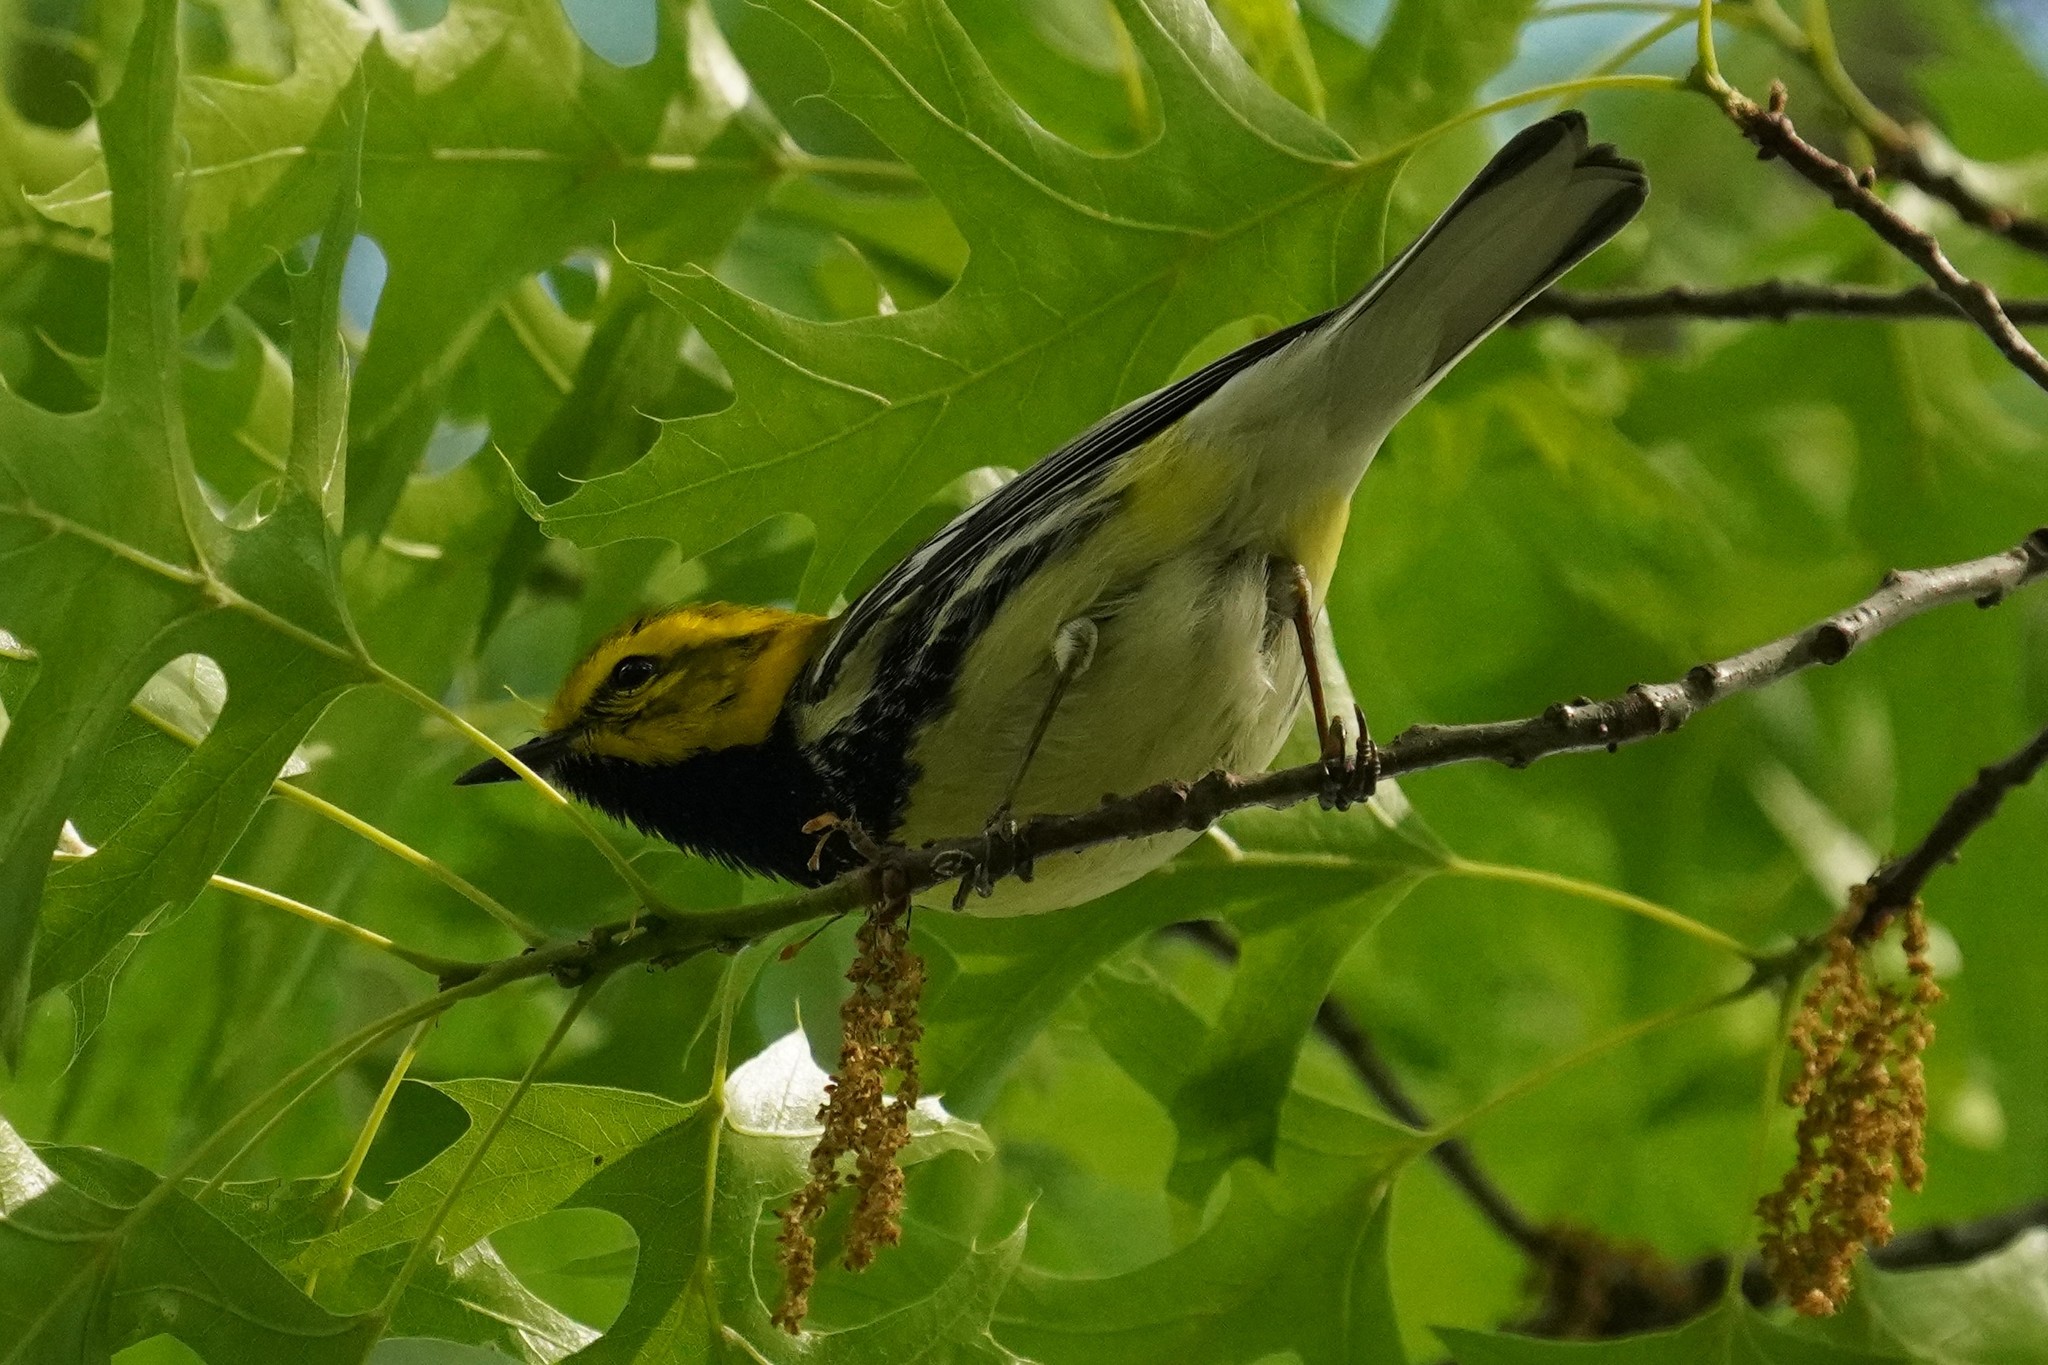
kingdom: Animalia
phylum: Chordata
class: Aves
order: Passeriformes
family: Parulidae
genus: Setophaga
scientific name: Setophaga virens
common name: Black-throated green warbler
